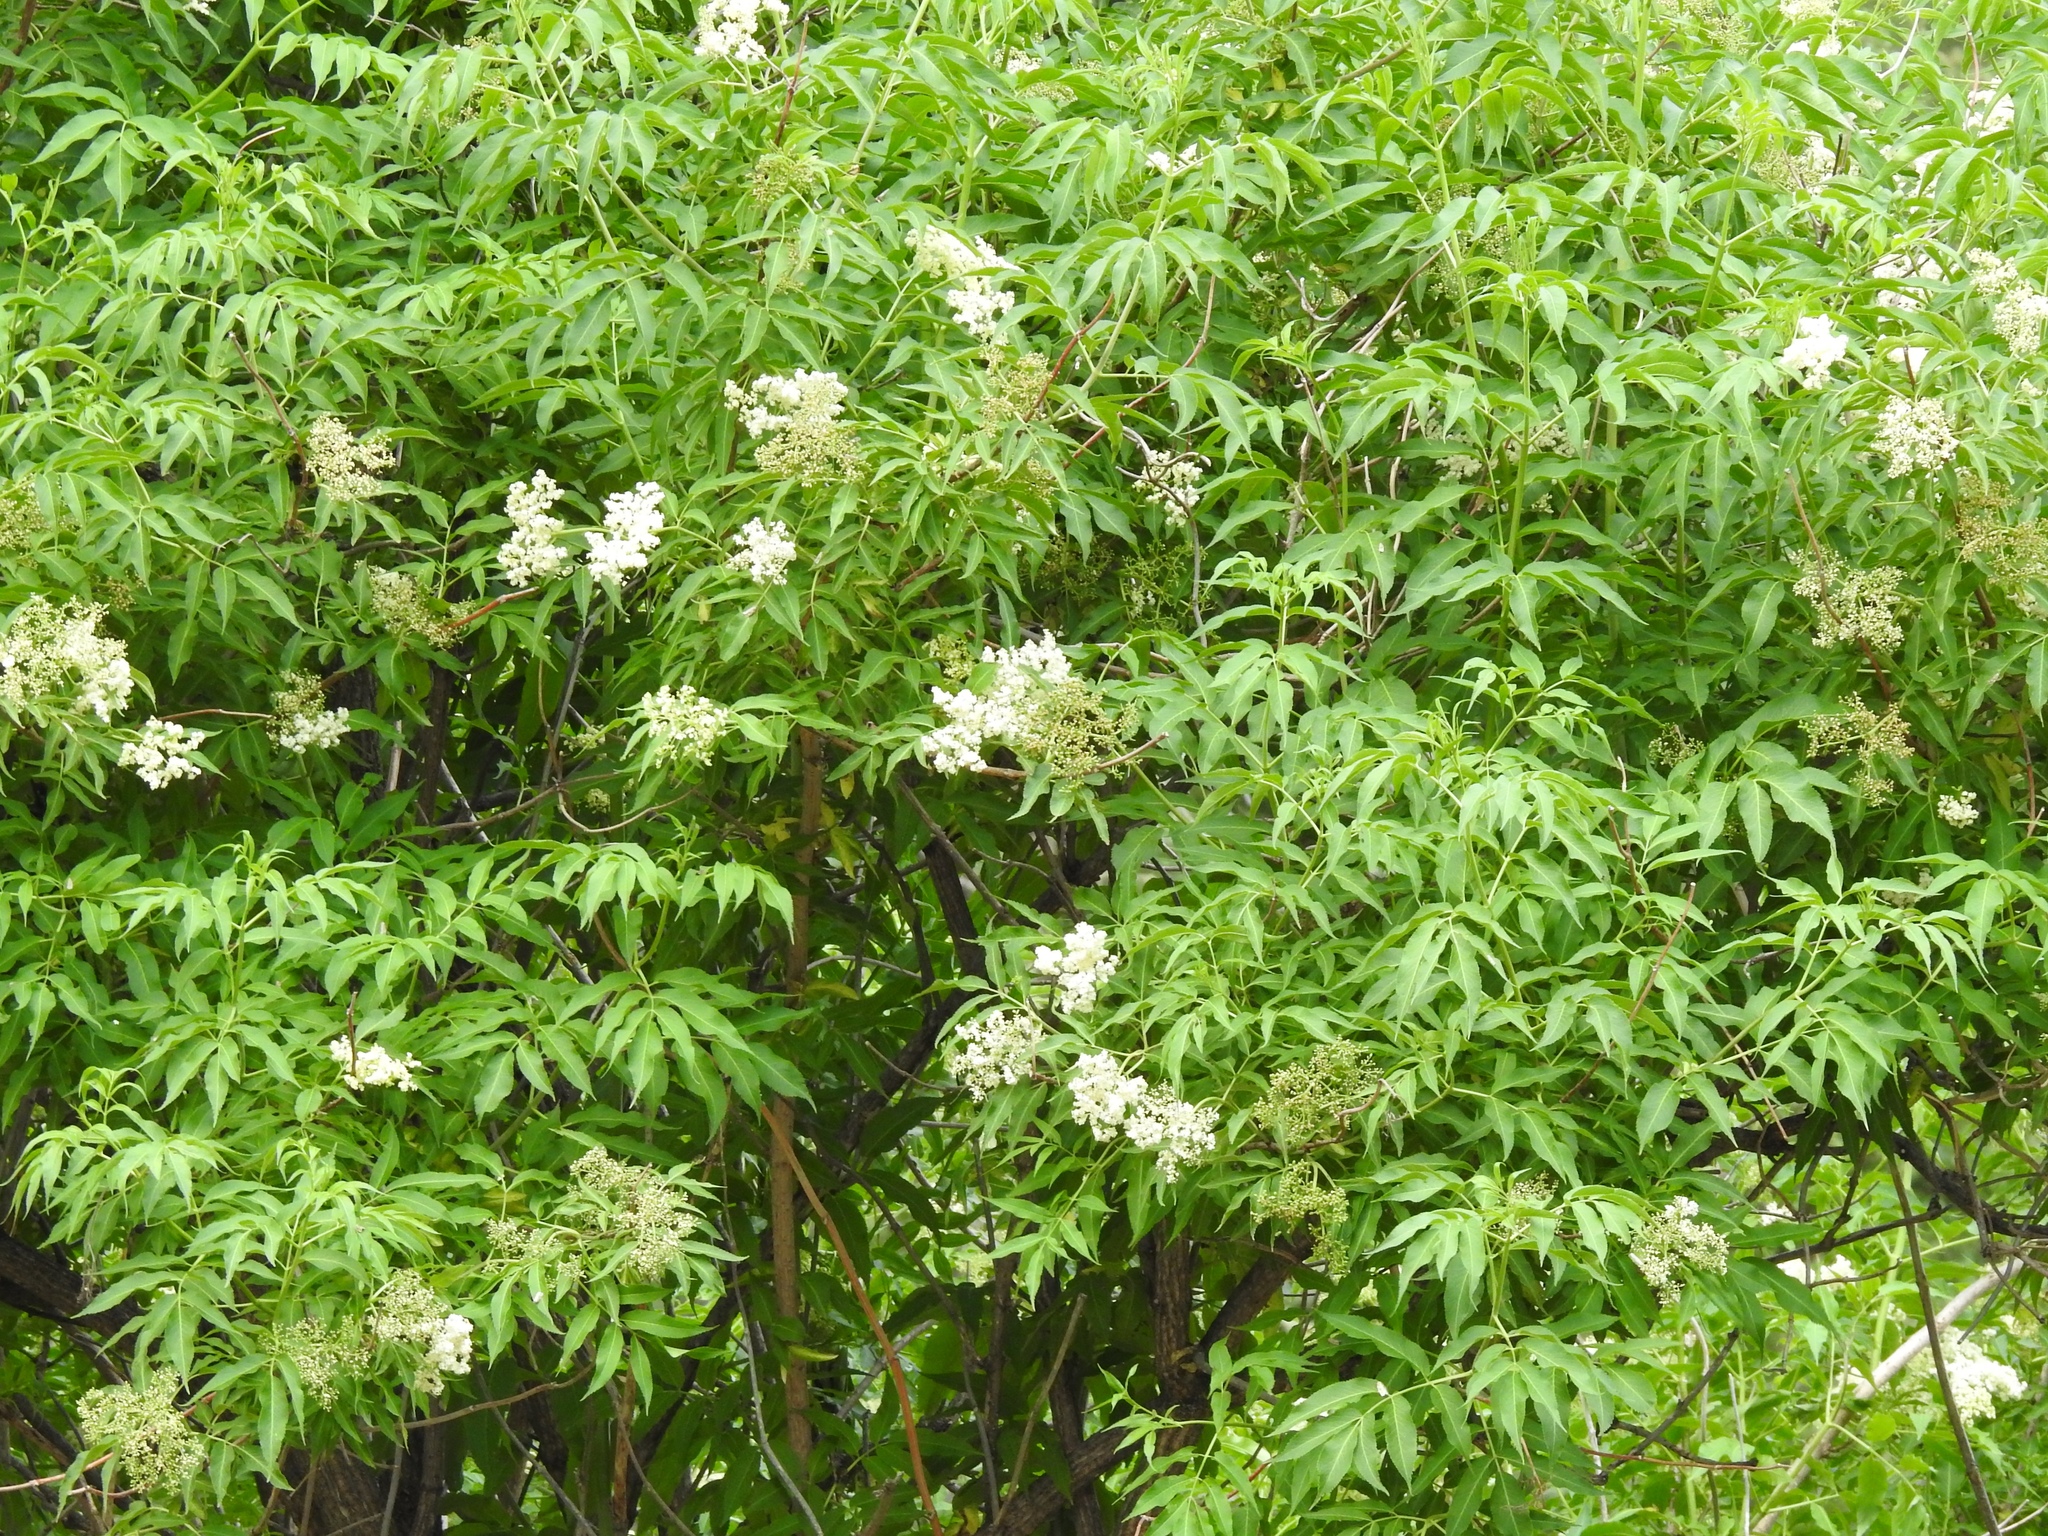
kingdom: Plantae
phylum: Tracheophyta
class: Magnoliopsida
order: Dipsacales
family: Viburnaceae
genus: Sambucus
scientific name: Sambucus cerulea
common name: Blue elder
